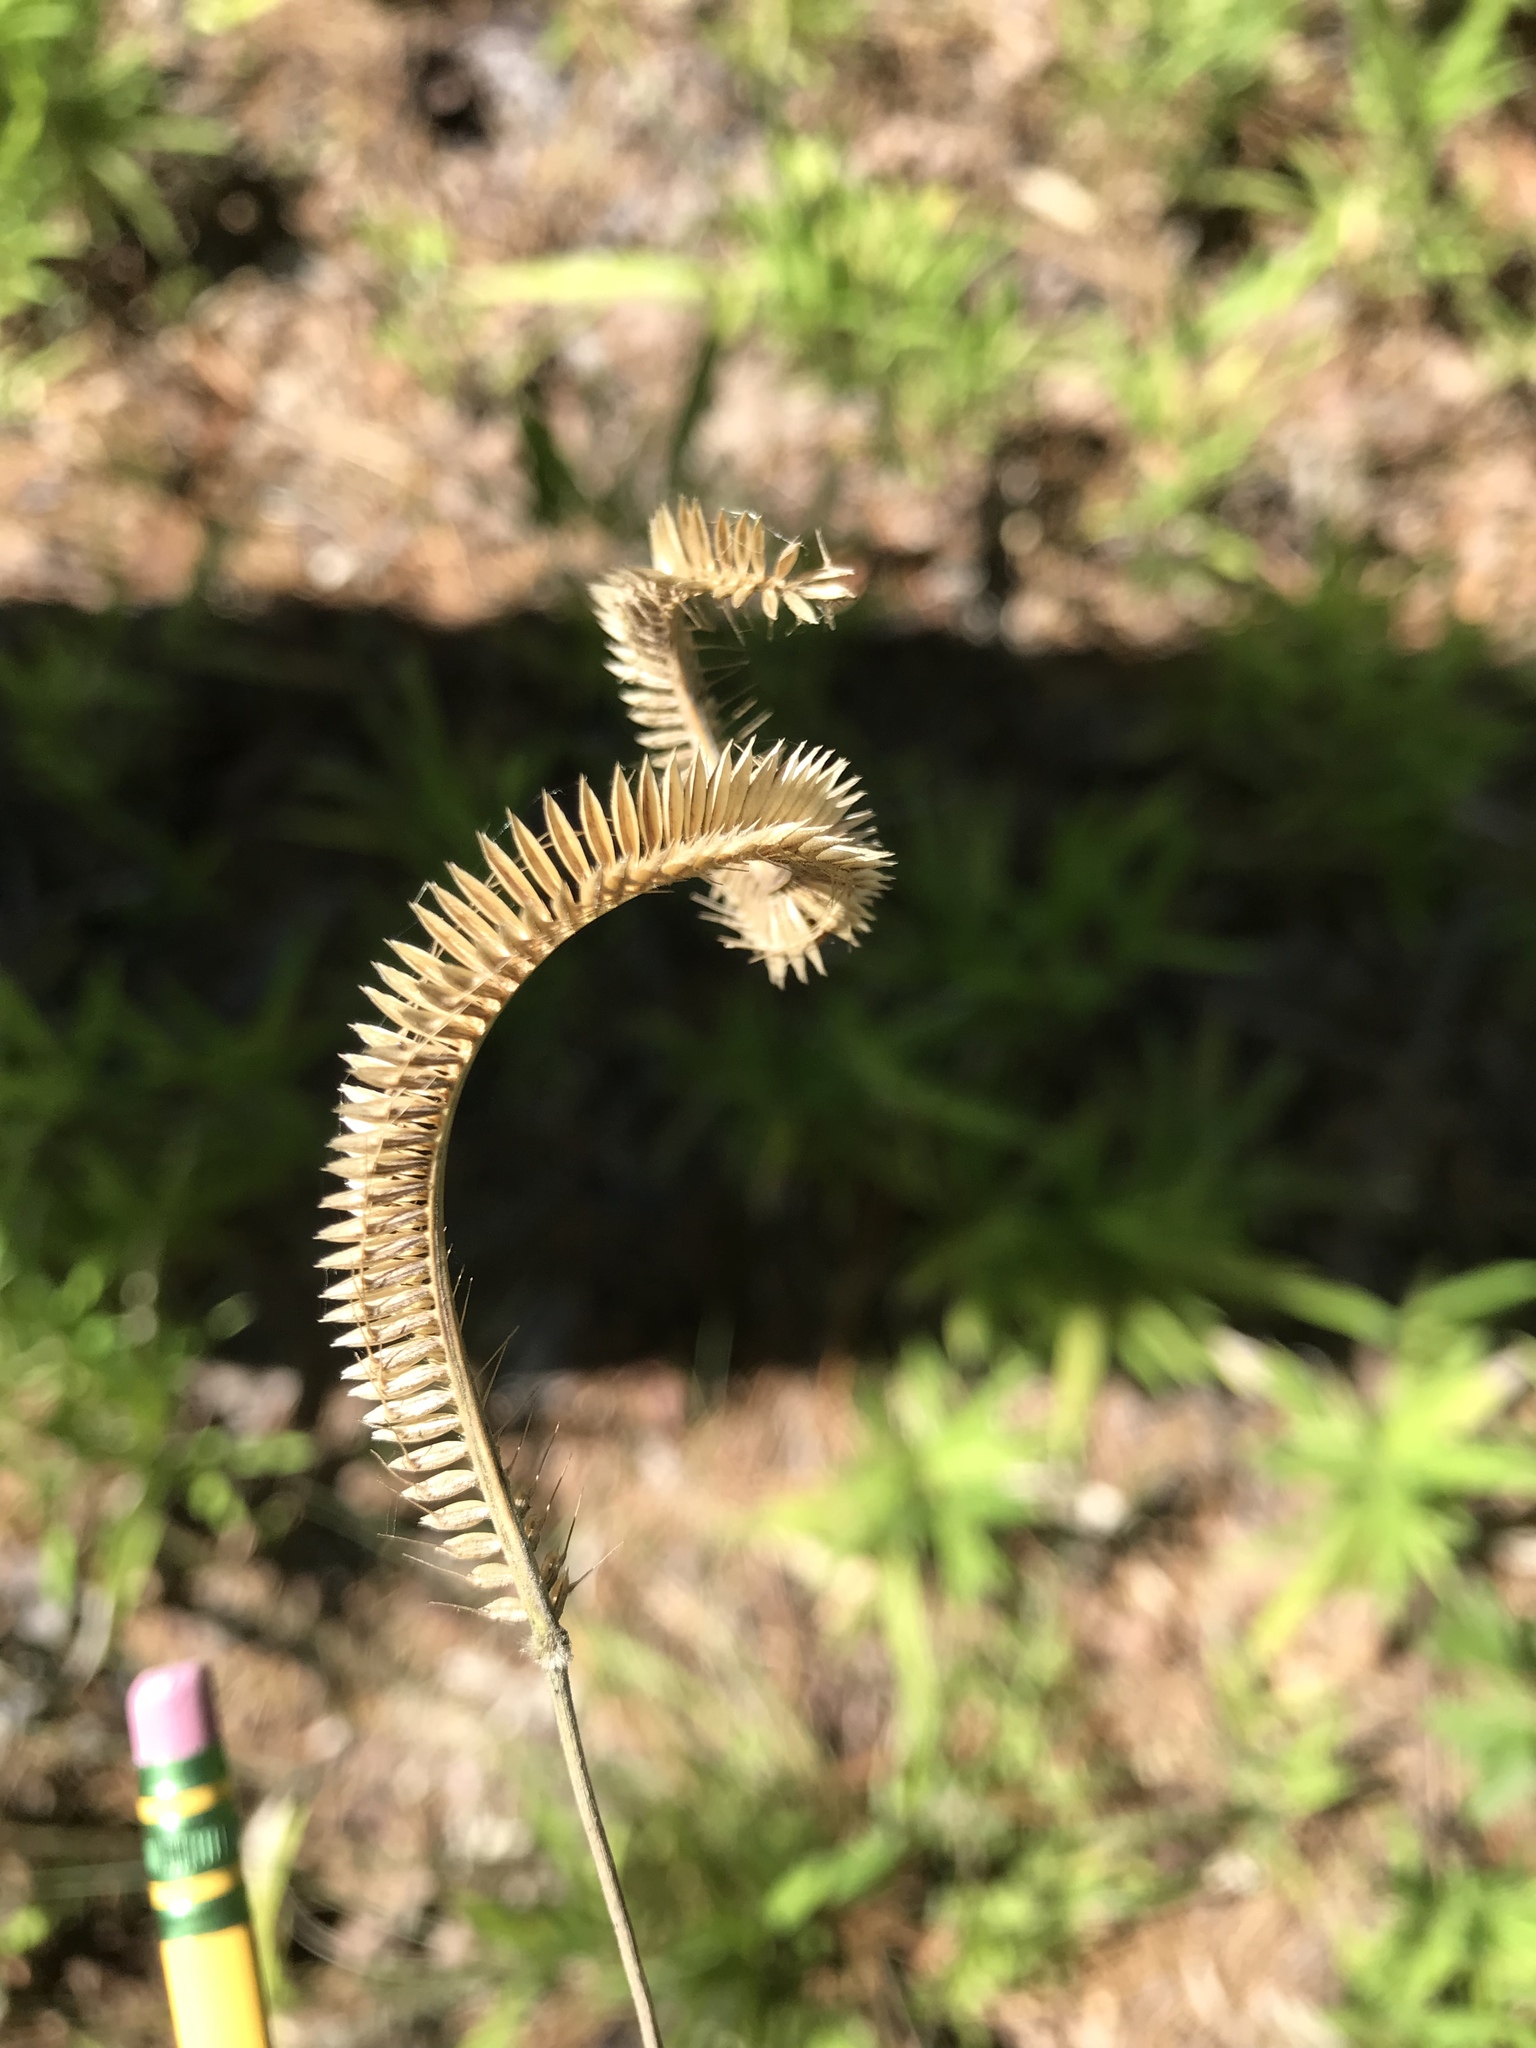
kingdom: Plantae
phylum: Tracheophyta
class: Liliopsida
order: Poales
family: Poaceae
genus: Ctenium
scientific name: Ctenium aromaticum
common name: Toothache grass
